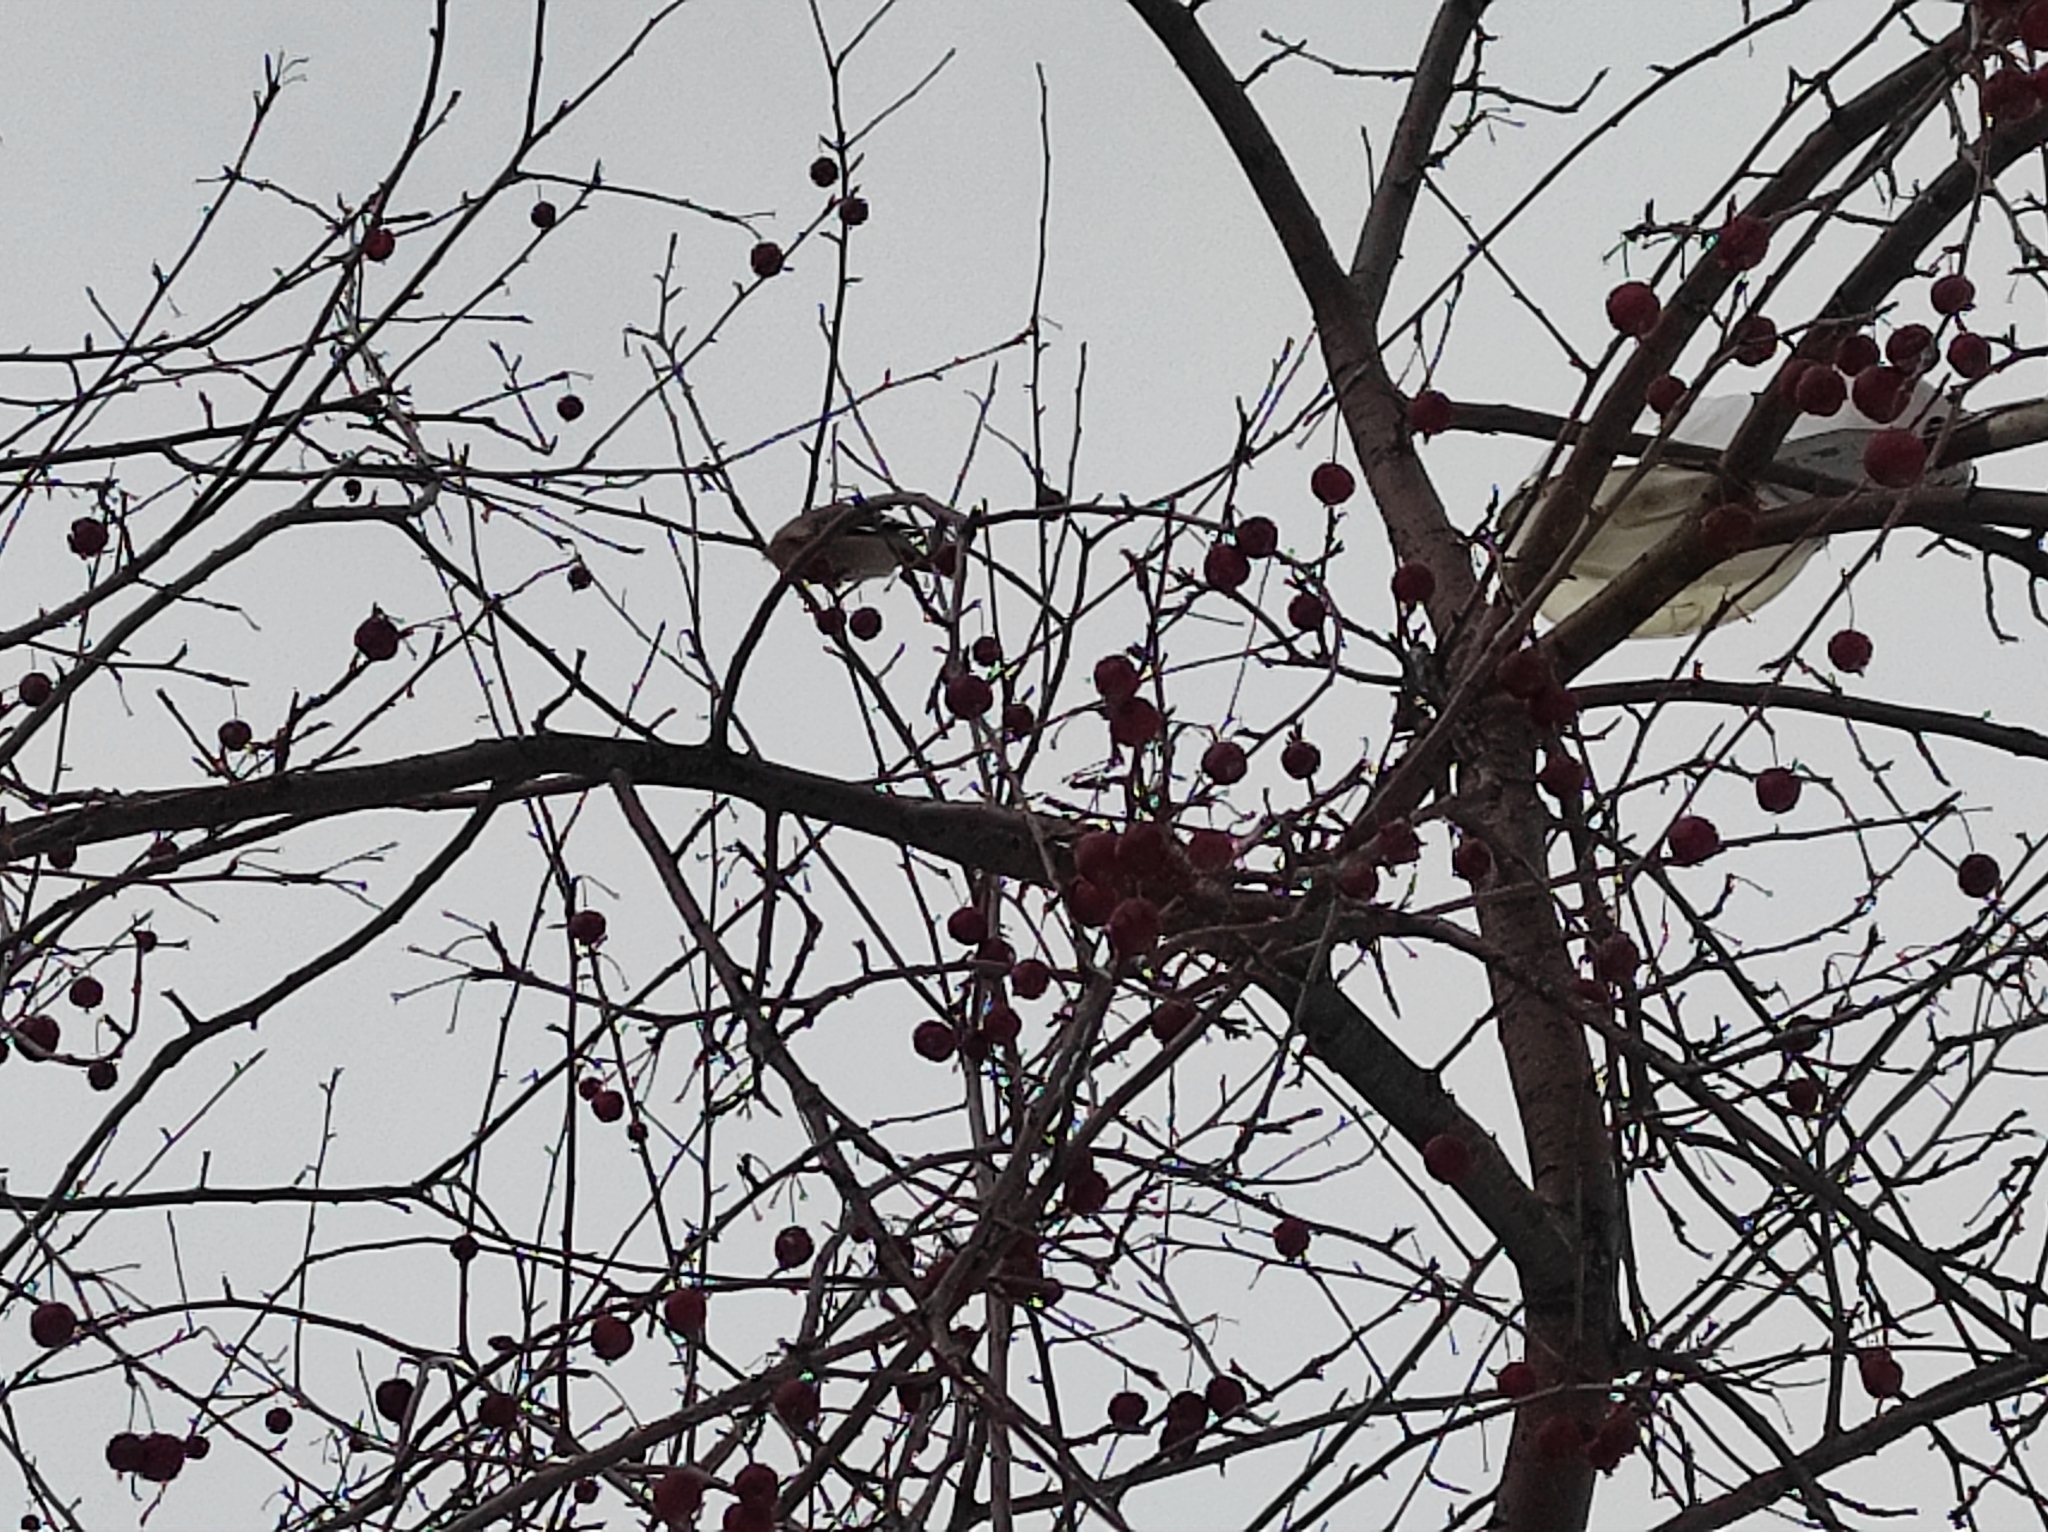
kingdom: Animalia
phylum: Chordata
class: Aves
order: Passeriformes
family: Bombycillidae
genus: Bombycilla
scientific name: Bombycilla garrulus
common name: Bohemian waxwing
